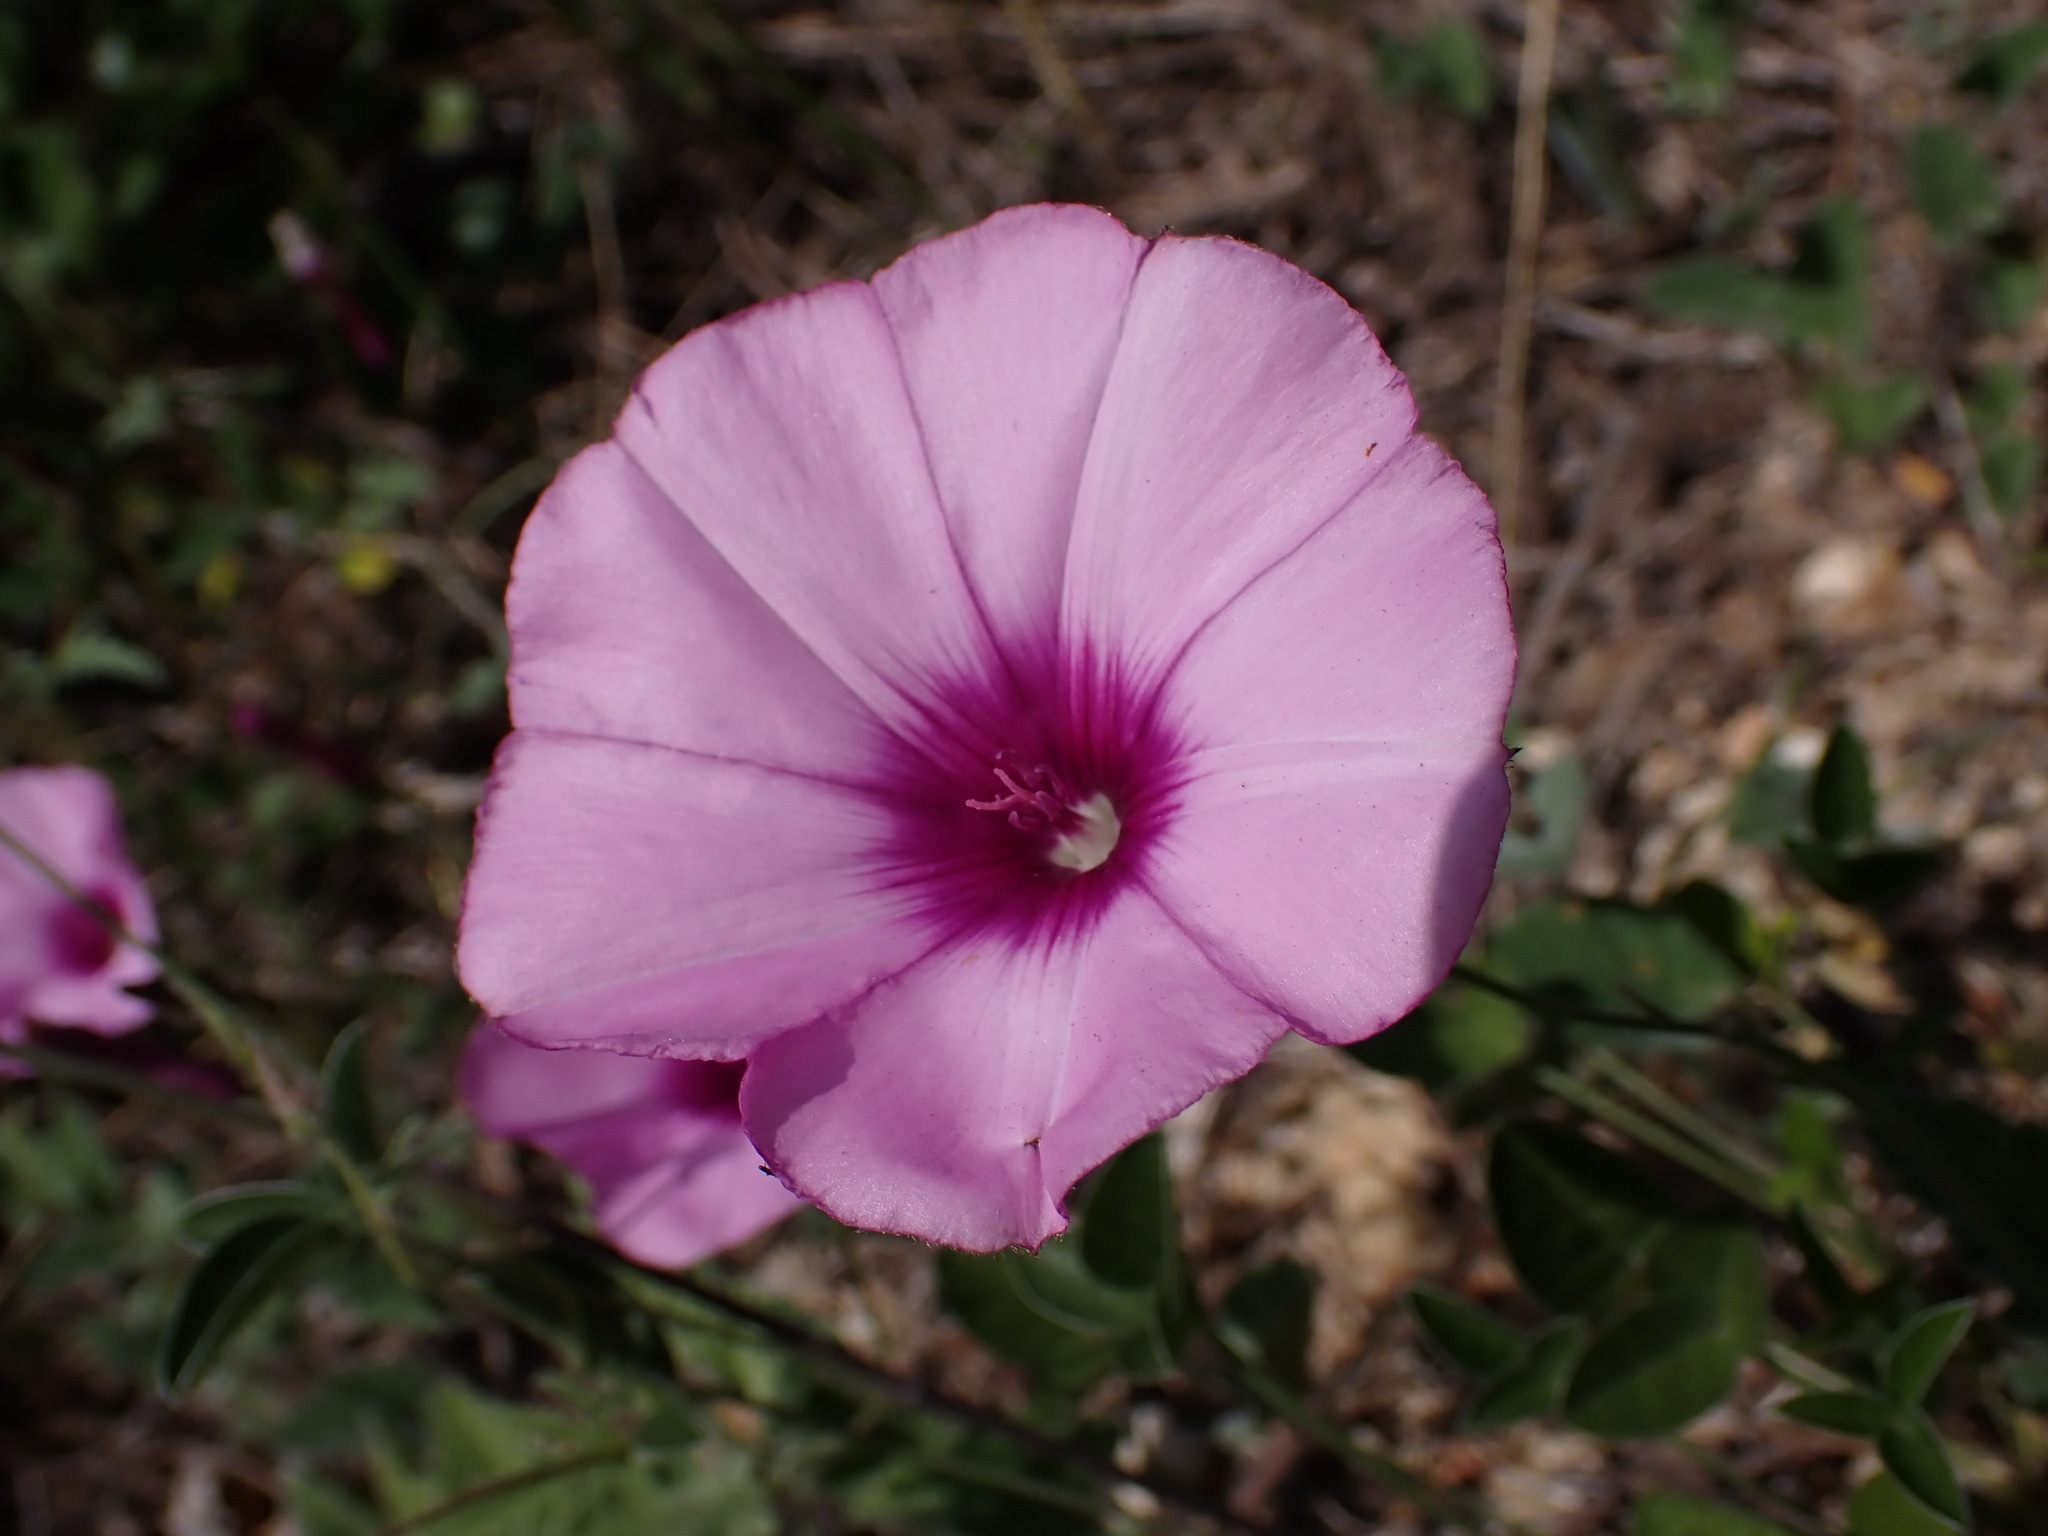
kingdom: Plantae
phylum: Tracheophyta
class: Magnoliopsida
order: Solanales
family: Convolvulaceae
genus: Convolvulus
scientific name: Convolvulus althaeoides
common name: Mallow bindweed
